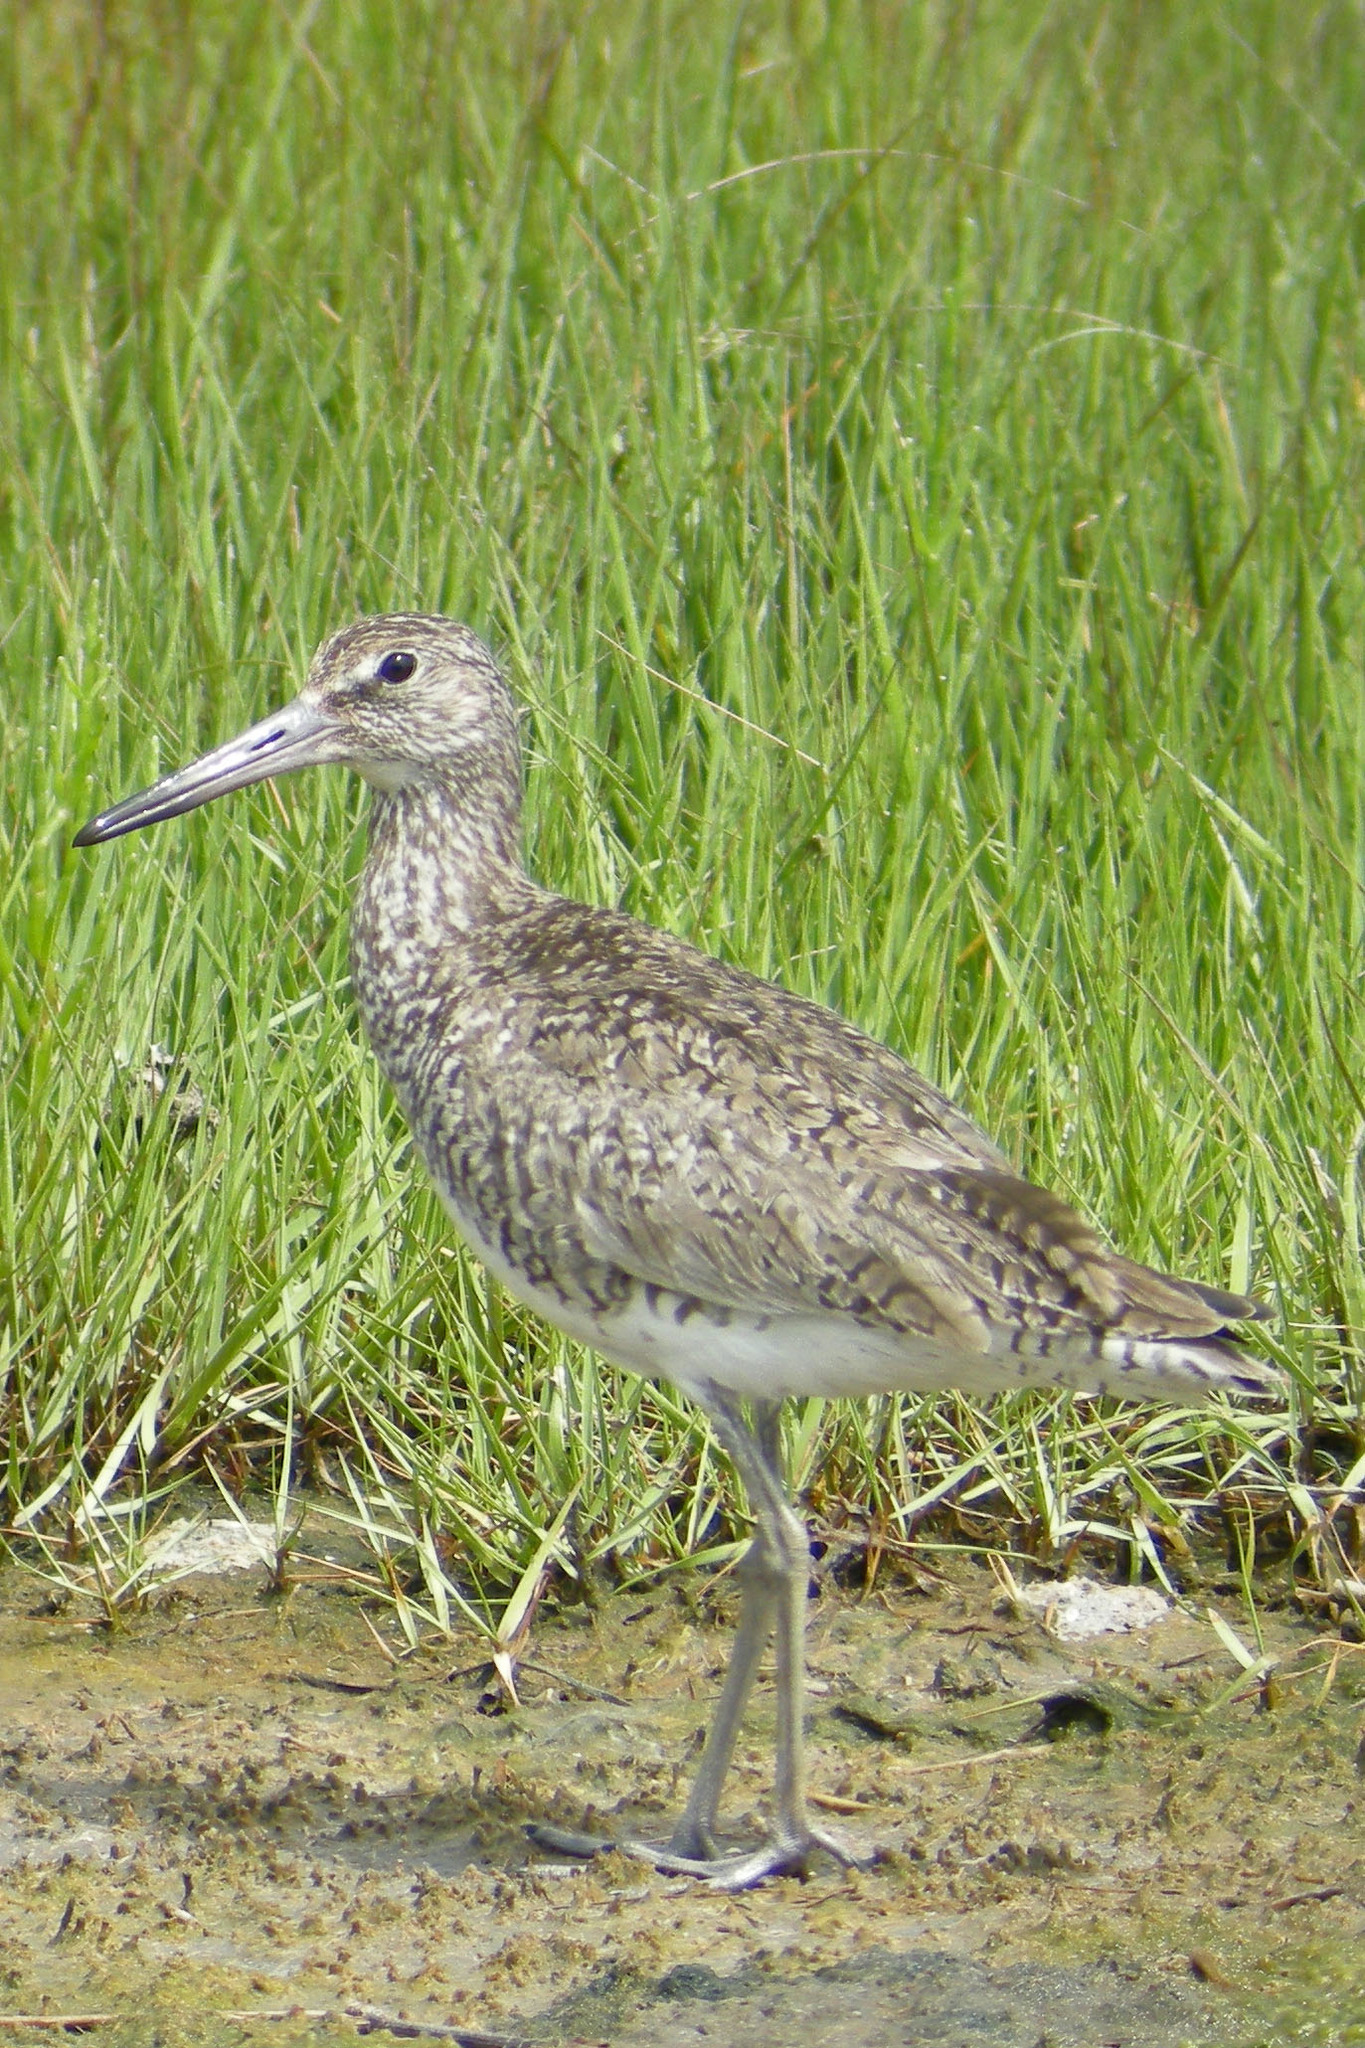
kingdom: Animalia
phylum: Chordata
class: Aves
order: Charadriiformes
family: Scolopacidae
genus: Tringa
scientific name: Tringa semipalmata
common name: Willet
